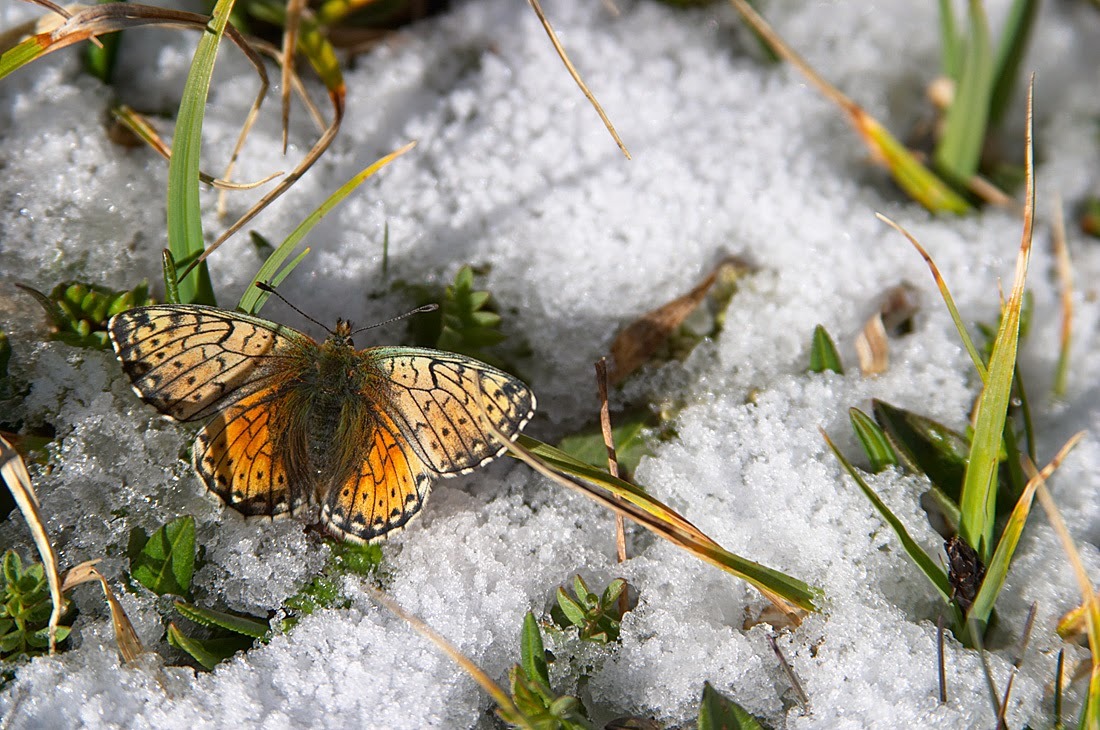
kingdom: Animalia
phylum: Arthropoda
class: Insecta
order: Lepidoptera
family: Nymphalidae
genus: Boloria
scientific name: Boloria sipora
